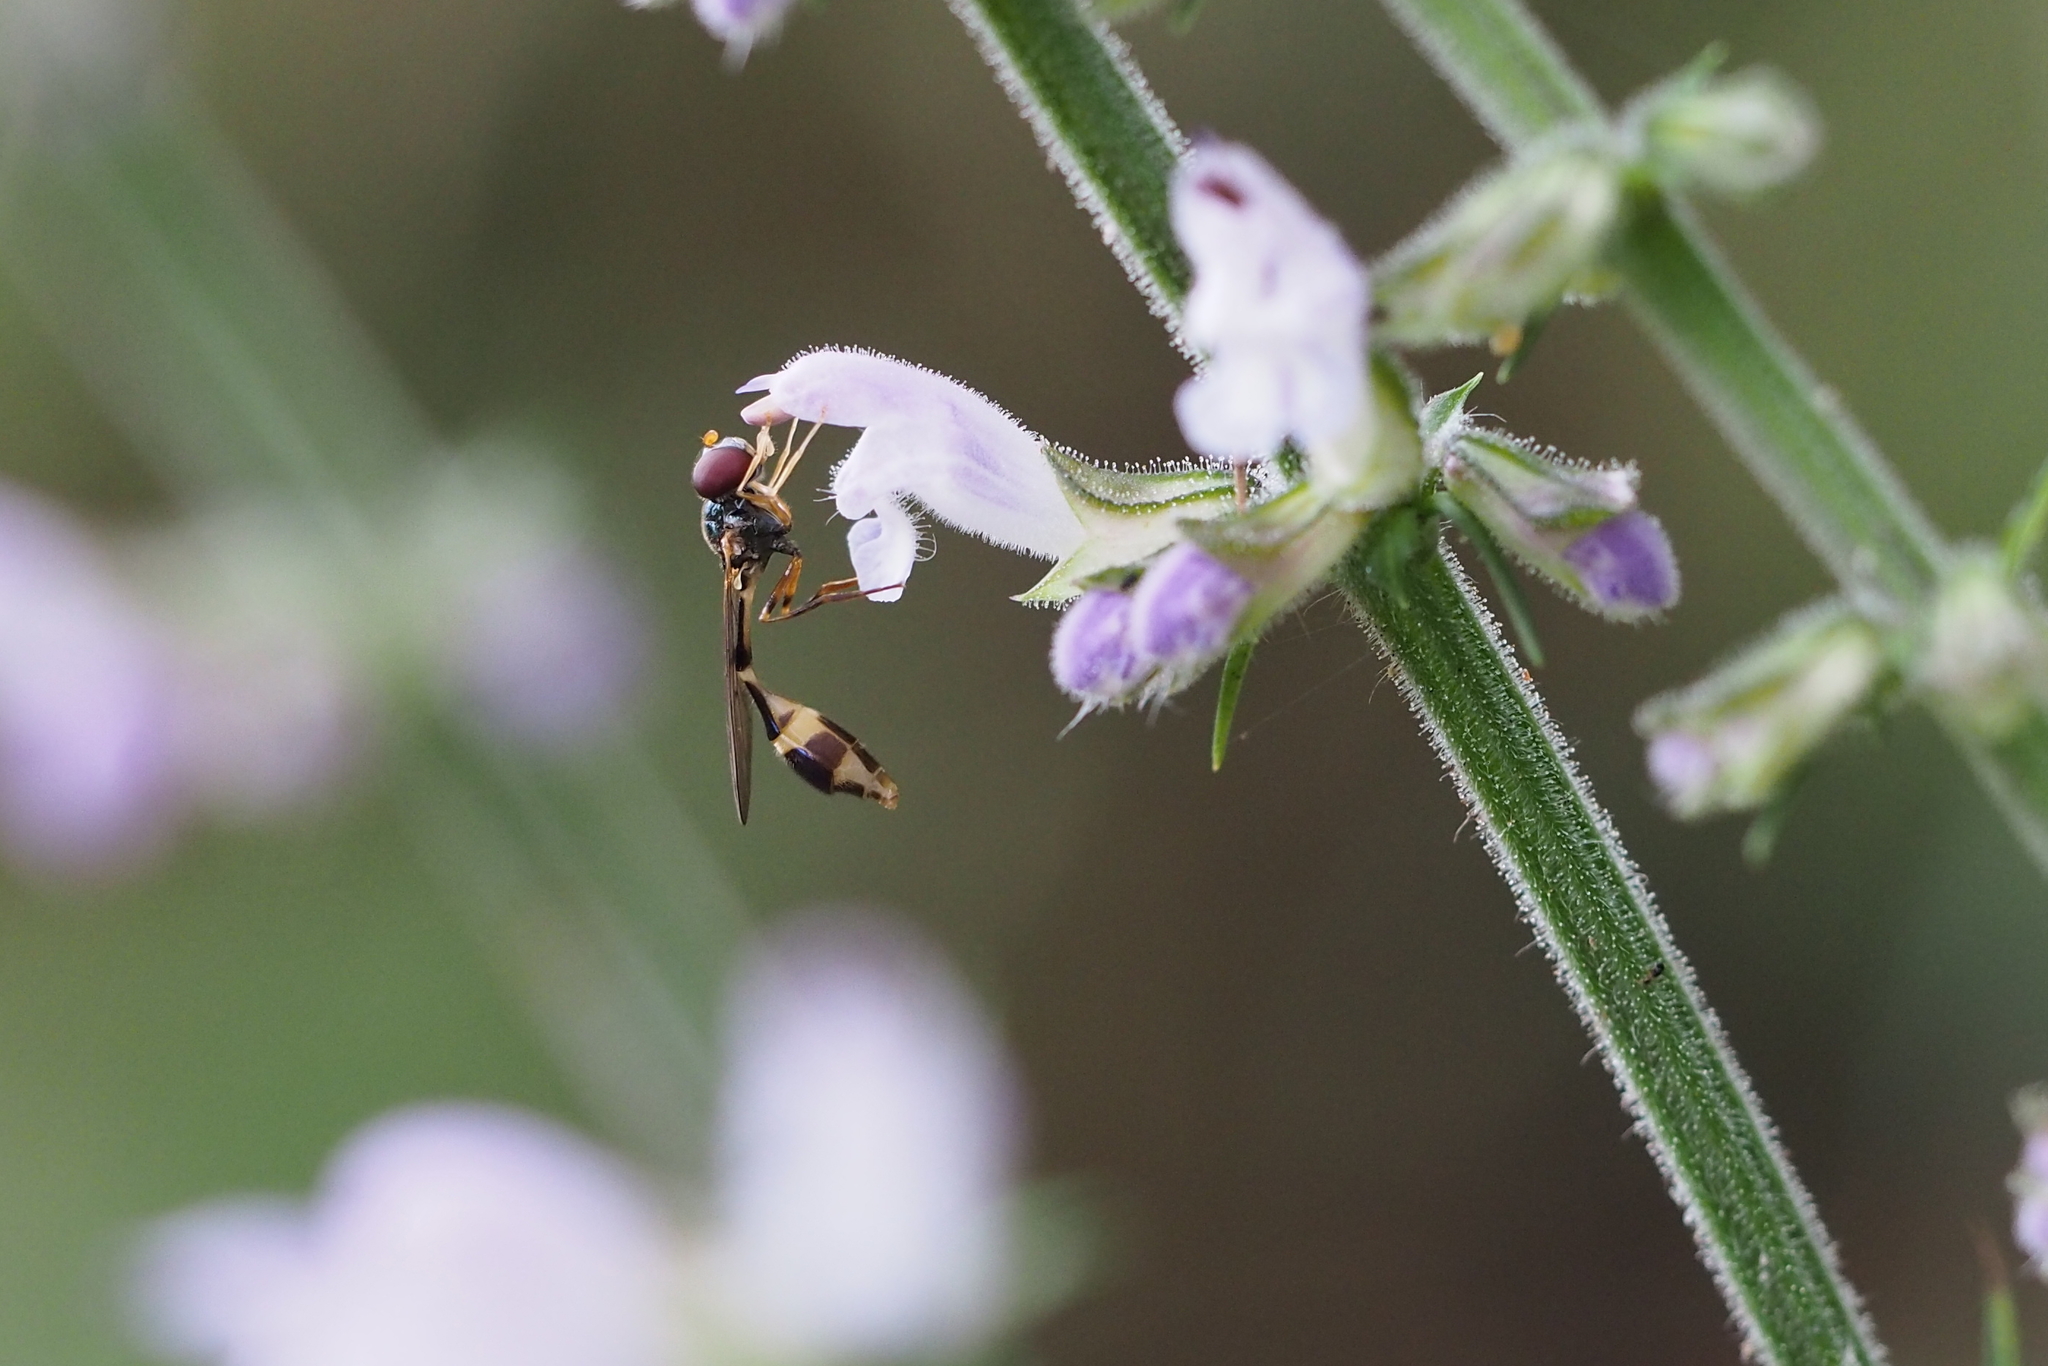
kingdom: Animalia
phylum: Arthropoda
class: Insecta
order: Diptera
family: Syrphidae
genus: Baccha
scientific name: Baccha maculata
